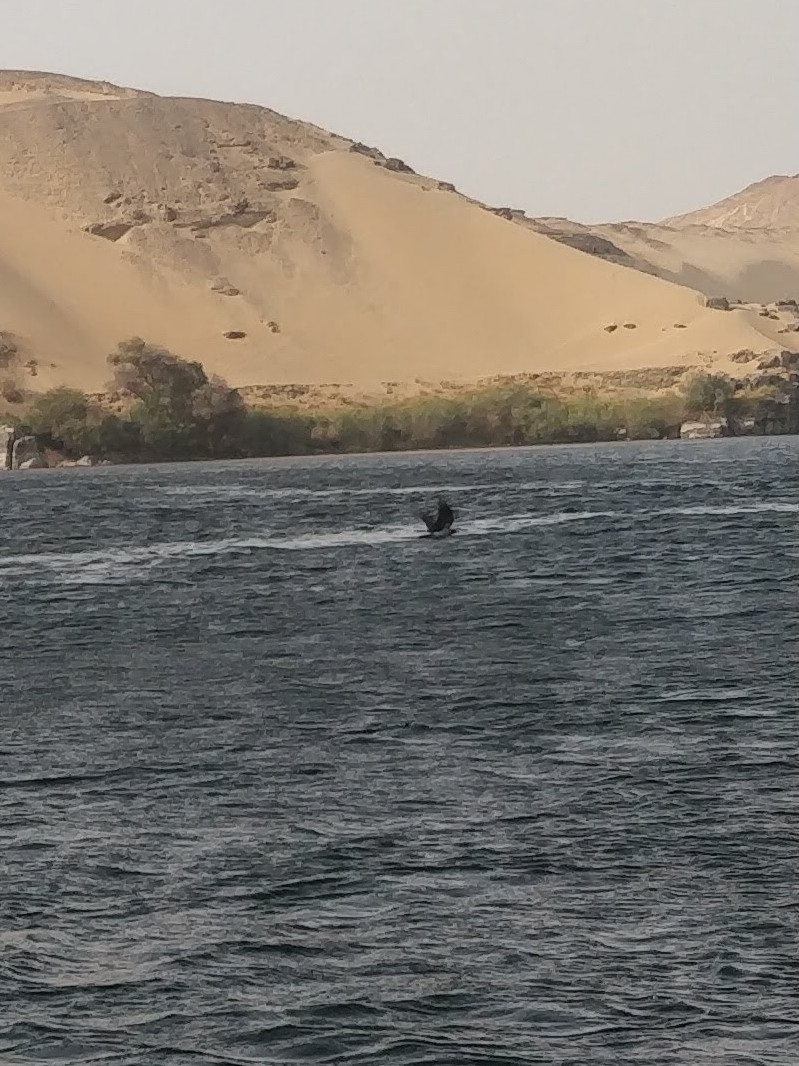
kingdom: Animalia
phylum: Chordata
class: Aves
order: Passeriformes
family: Corvidae
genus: Corvus
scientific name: Corvus cornix
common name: Hooded crow
